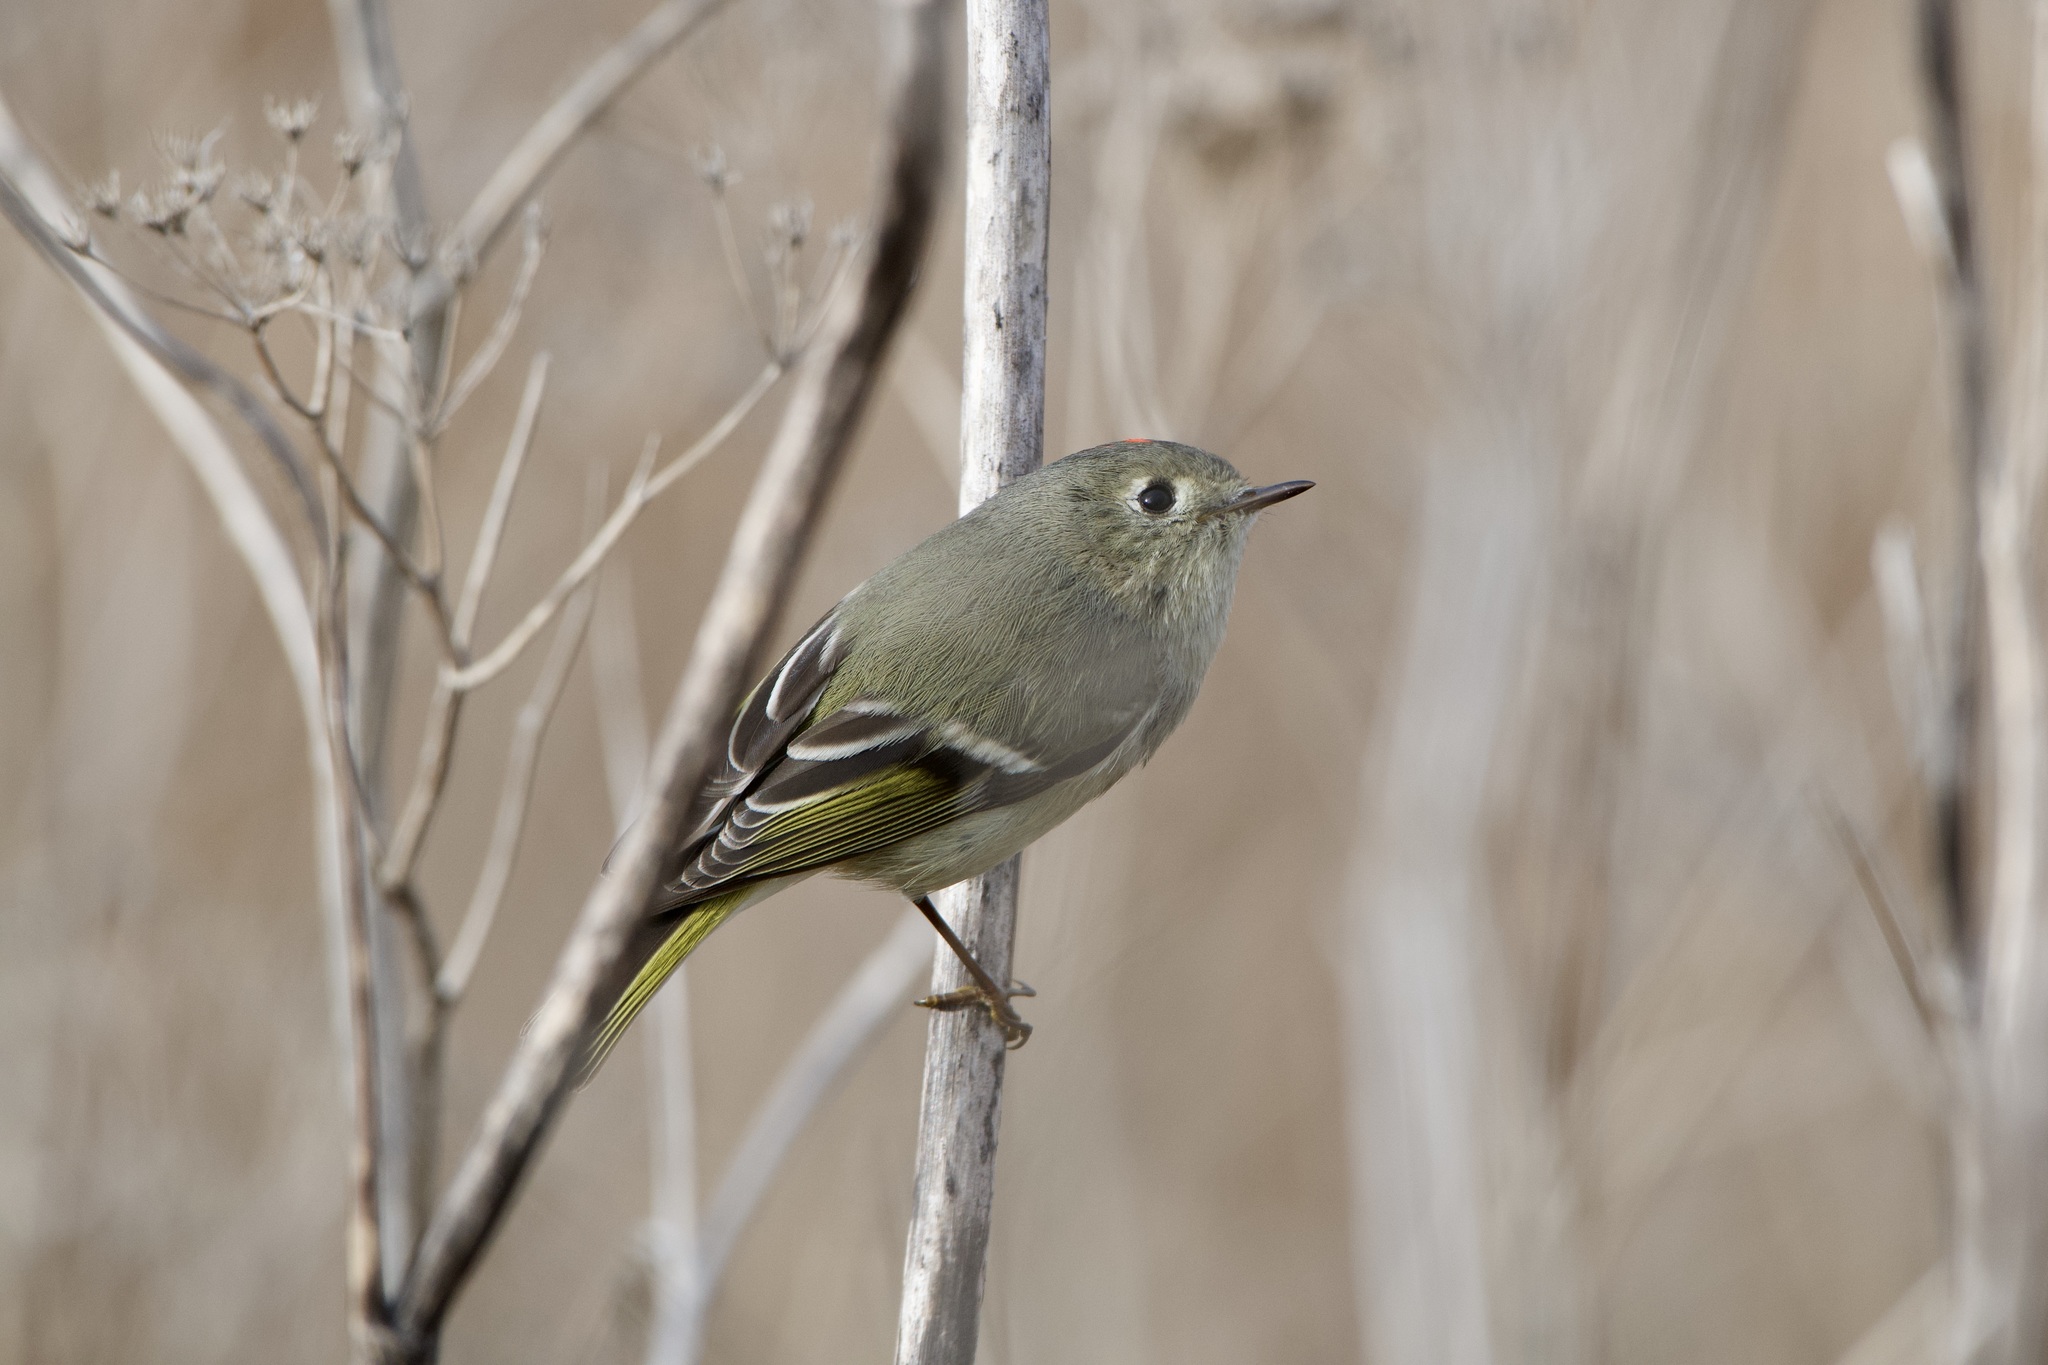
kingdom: Animalia
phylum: Chordata
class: Aves
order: Passeriformes
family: Regulidae
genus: Regulus
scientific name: Regulus calendula
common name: Ruby-crowned kinglet
